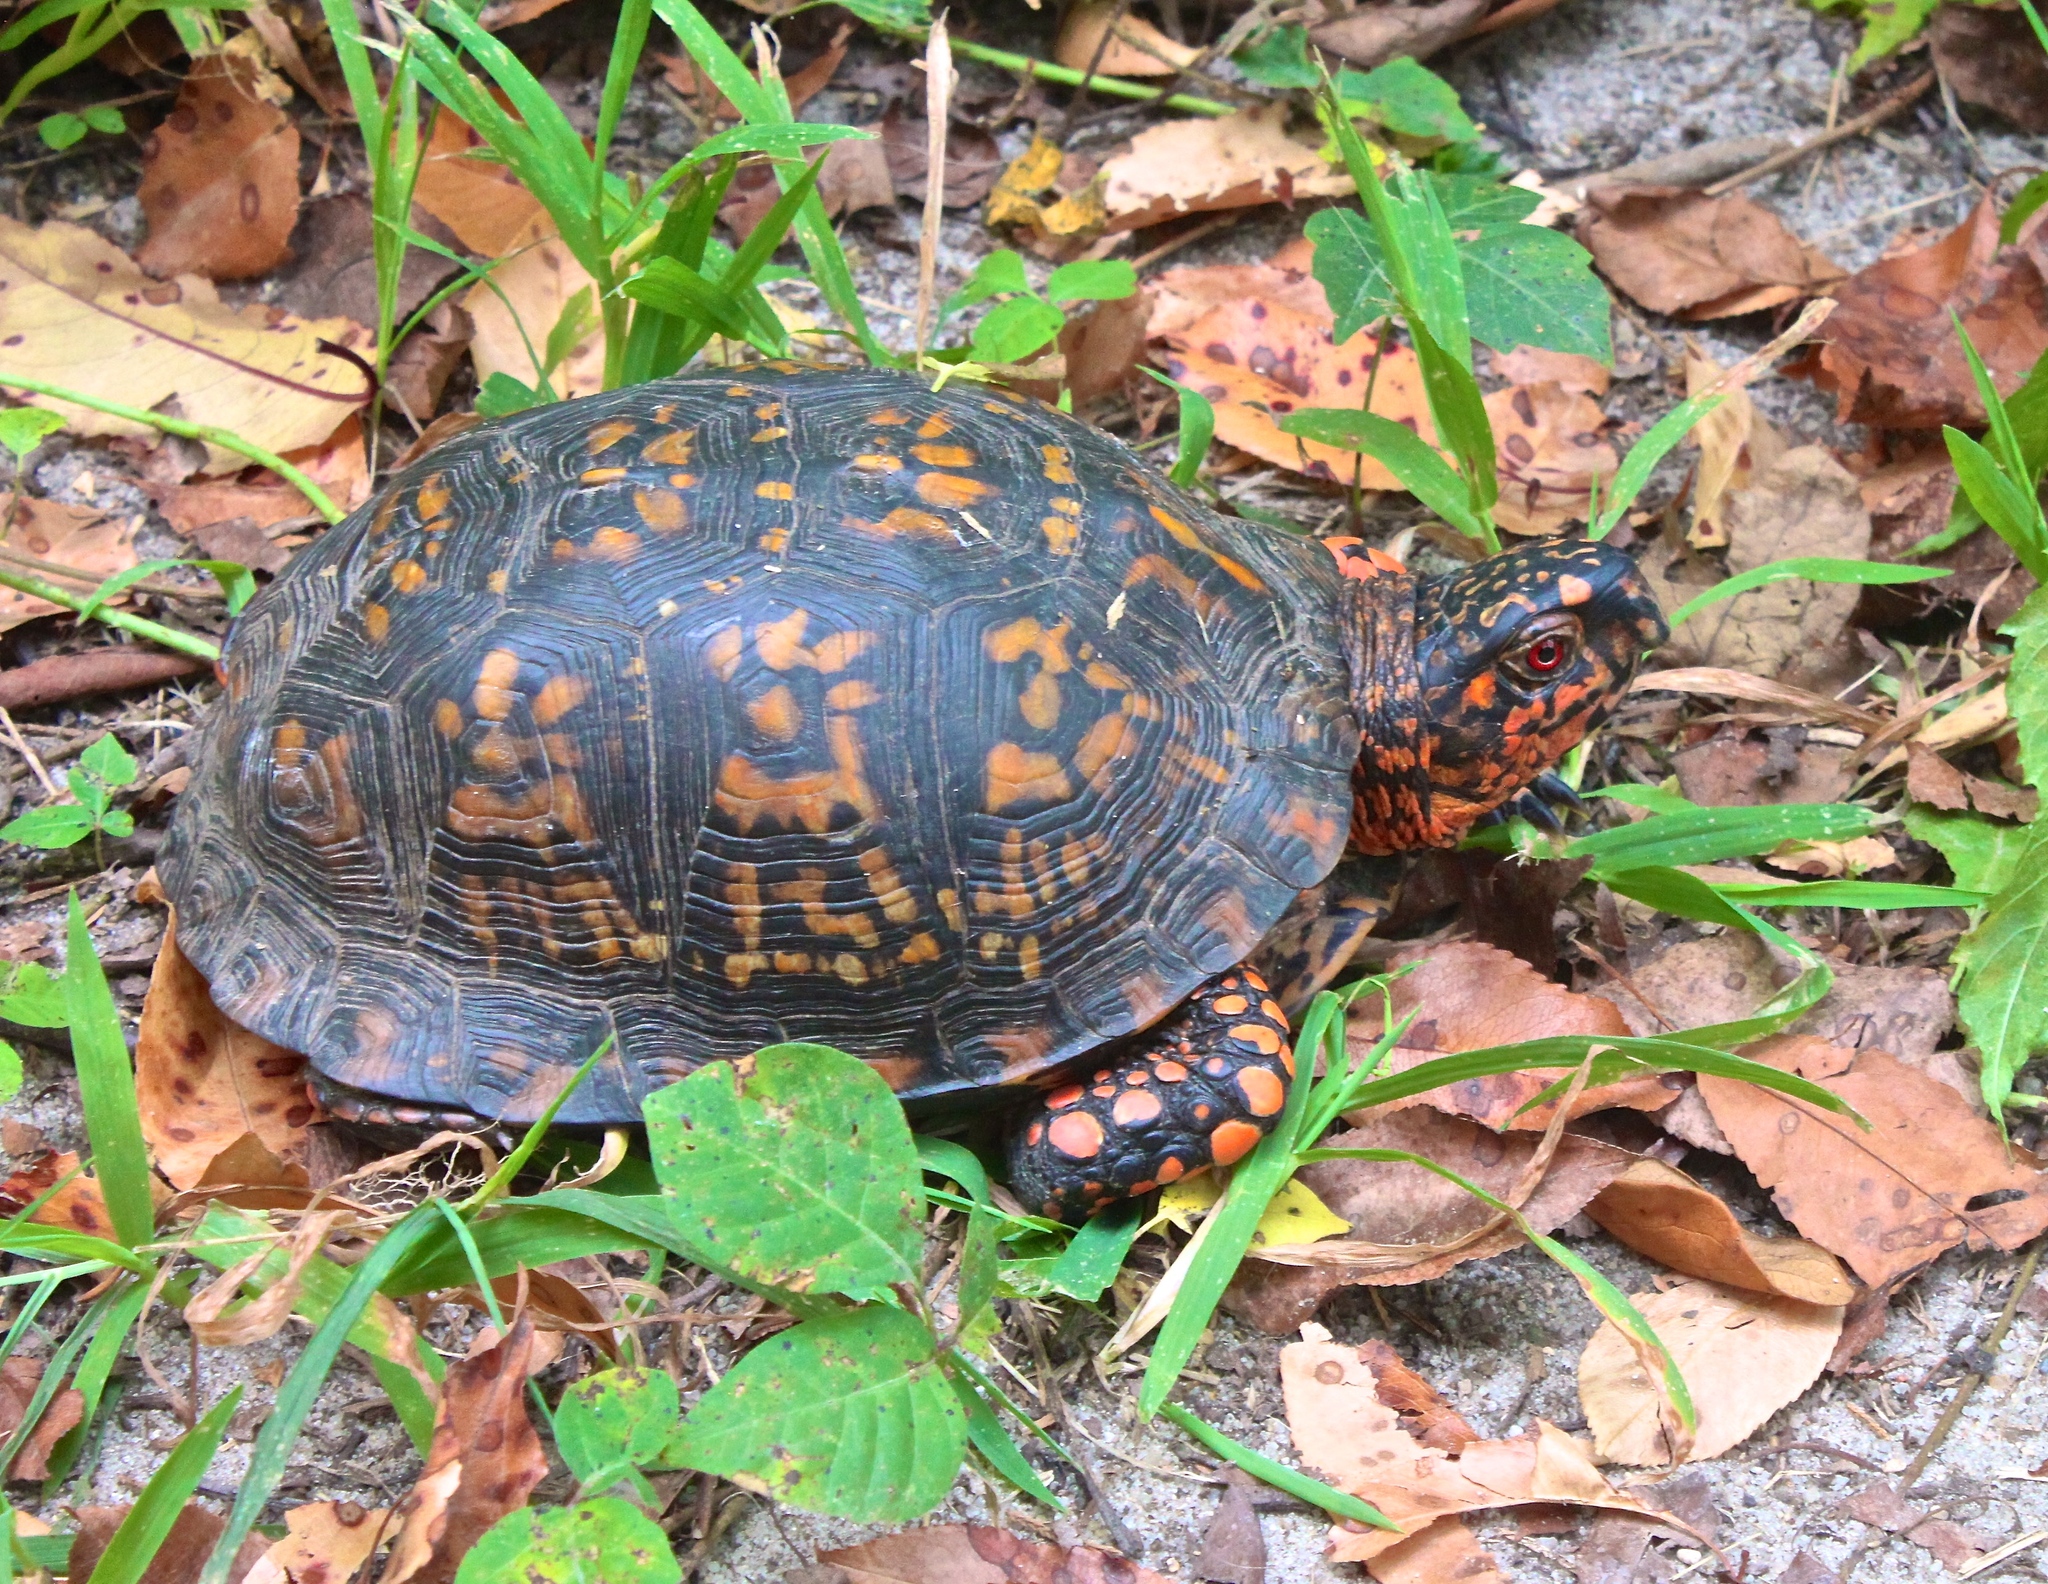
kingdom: Animalia
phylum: Chordata
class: Testudines
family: Emydidae
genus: Terrapene
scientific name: Terrapene carolina
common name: Common box turtle
